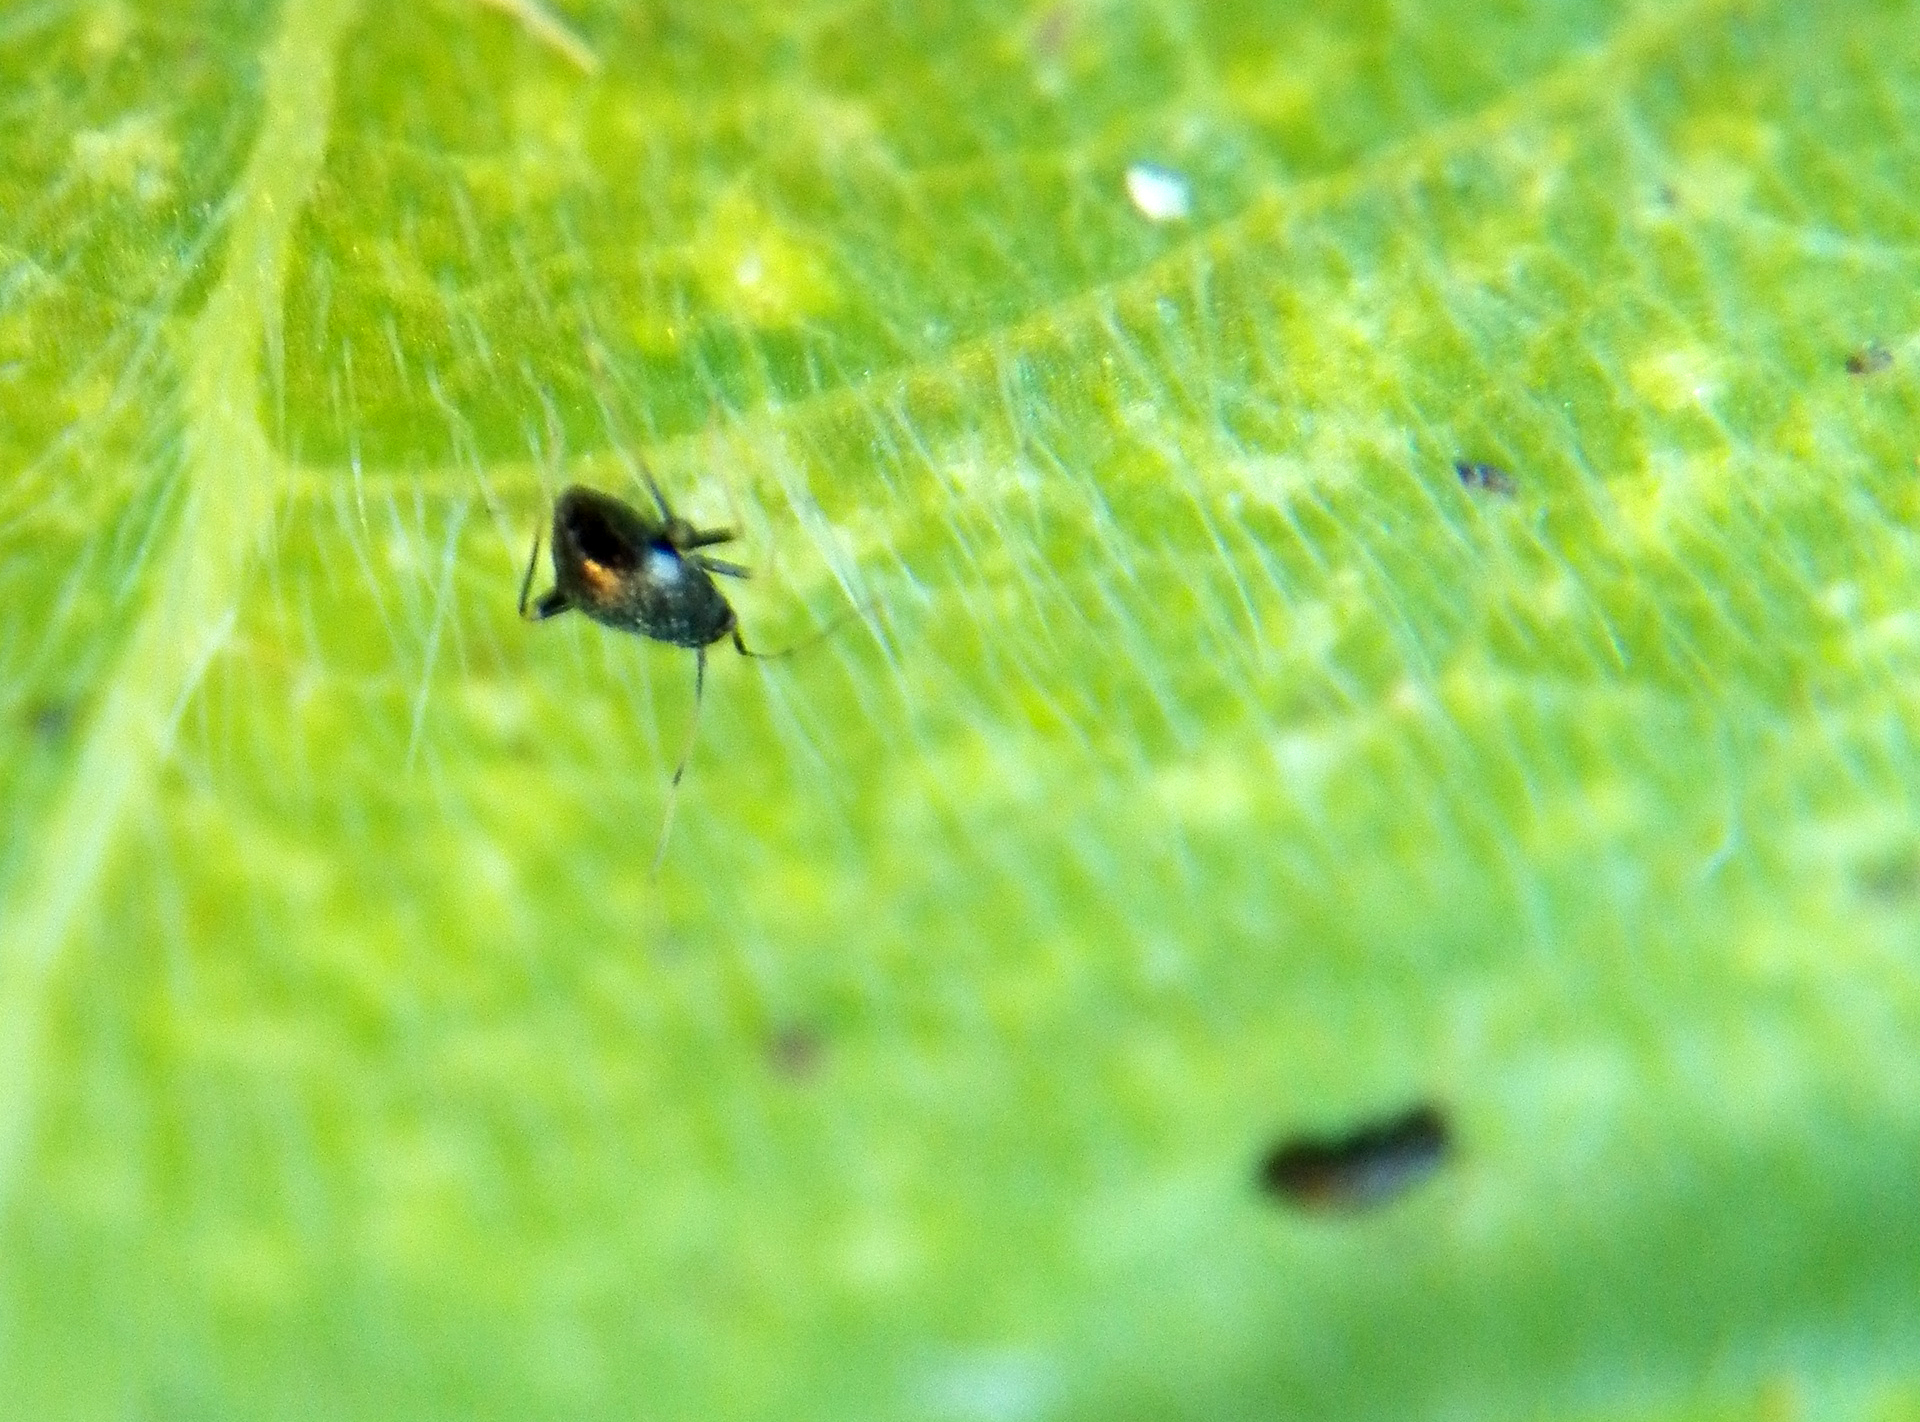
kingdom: Animalia
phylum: Arthropoda
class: Insecta
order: Hemiptera
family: Miridae
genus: Microtechnites
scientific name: Microtechnites bractatus
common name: Garden fleahopper
